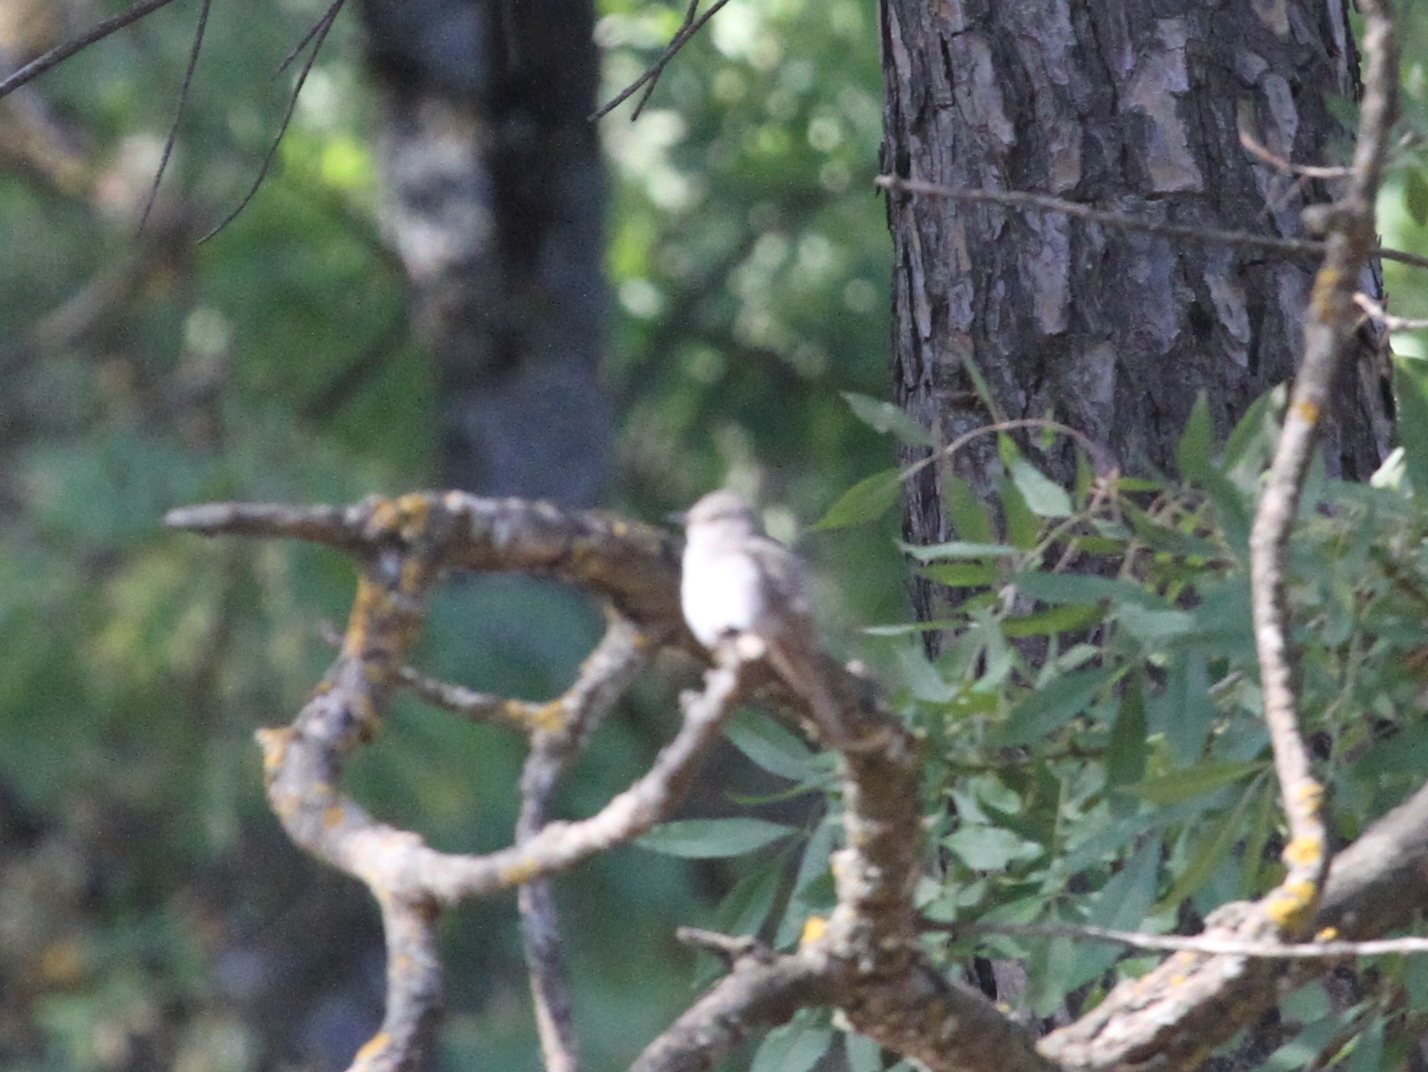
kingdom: Animalia
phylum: Chordata
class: Aves
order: Passeriformes
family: Muscicapidae
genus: Muscicapa
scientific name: Muscicapa striata
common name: Spotted flycatcher
